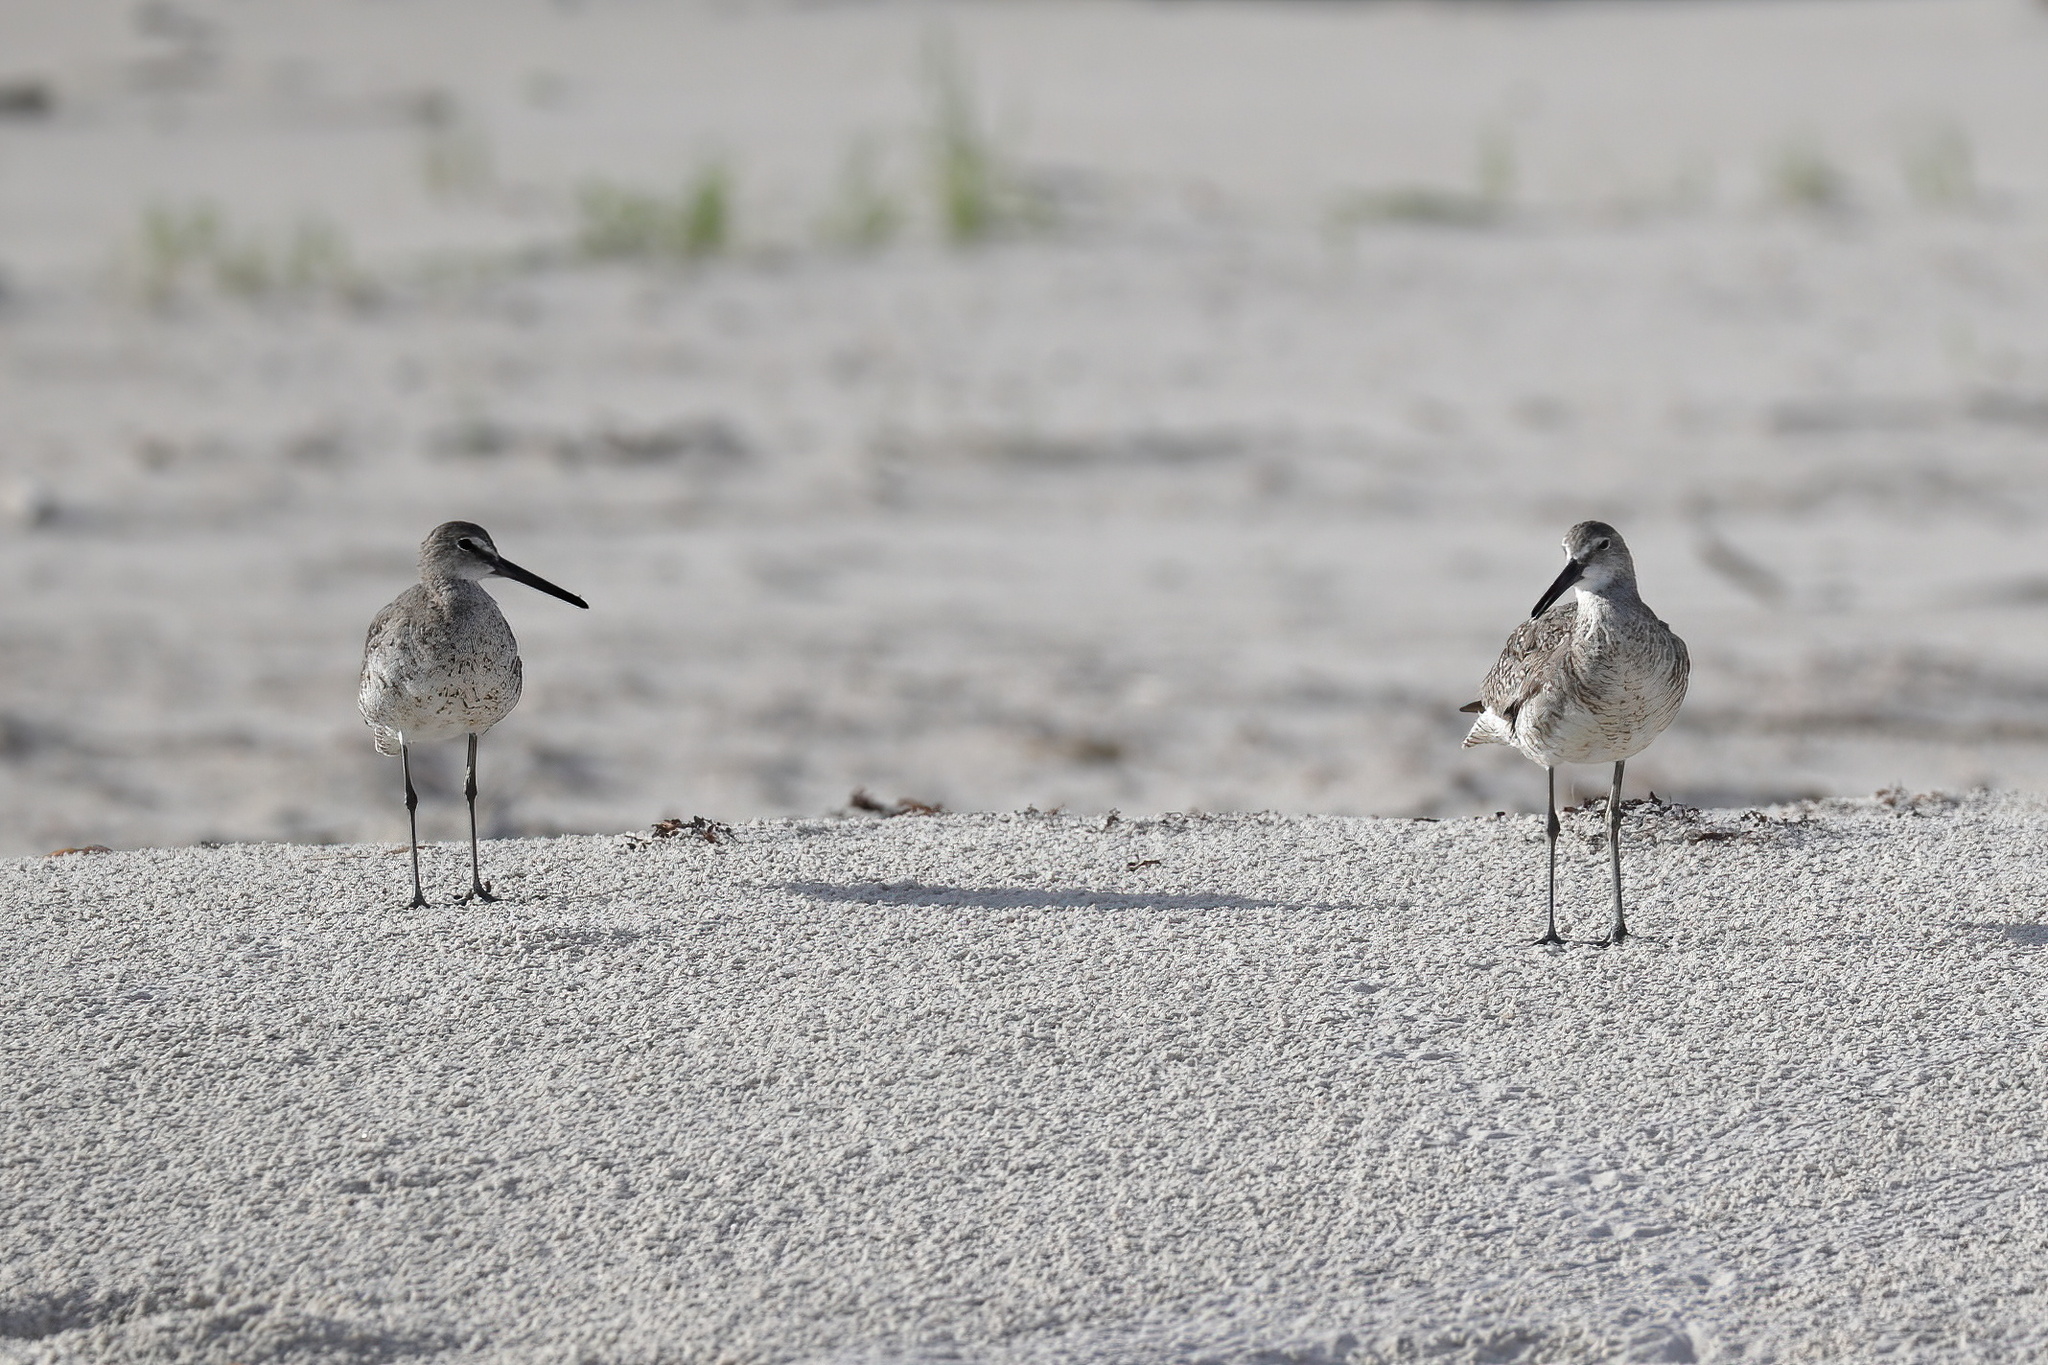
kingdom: Animalia
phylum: Chordata
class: Aves
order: Charadriiformes
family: Scolopacidae
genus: Tringa
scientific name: Tringa semipalmata
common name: Willet
